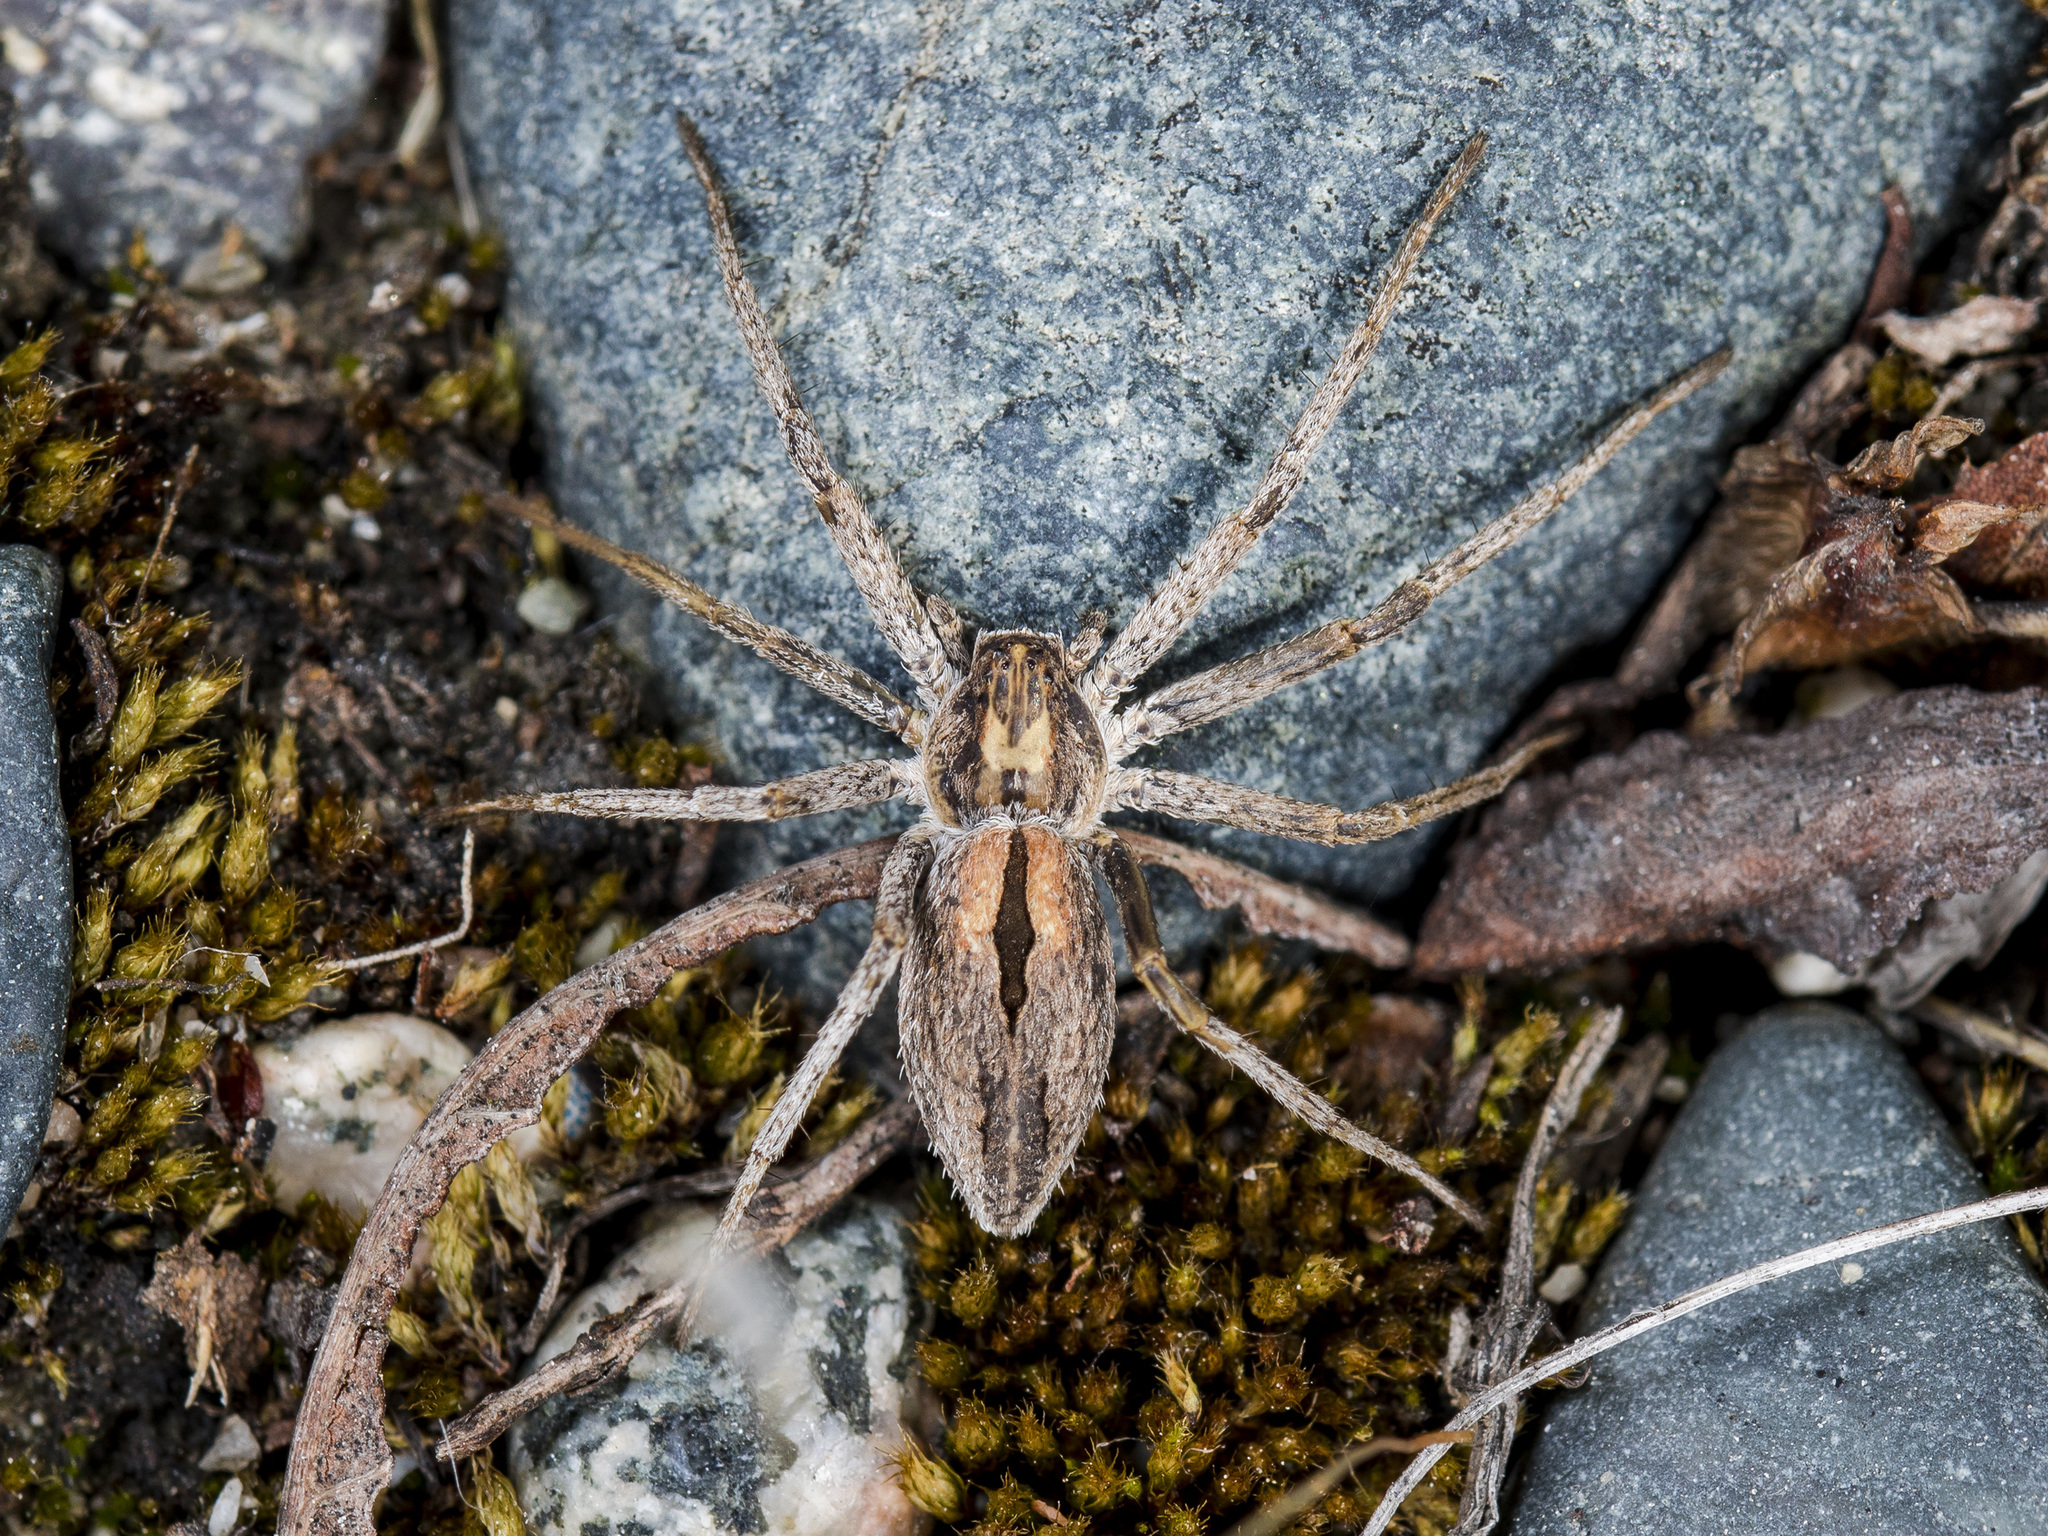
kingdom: Animalia
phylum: Arthropoda
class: Arachnida
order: Araneae
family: Philodromidae
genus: Thanatus
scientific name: Thanatus formicinus
